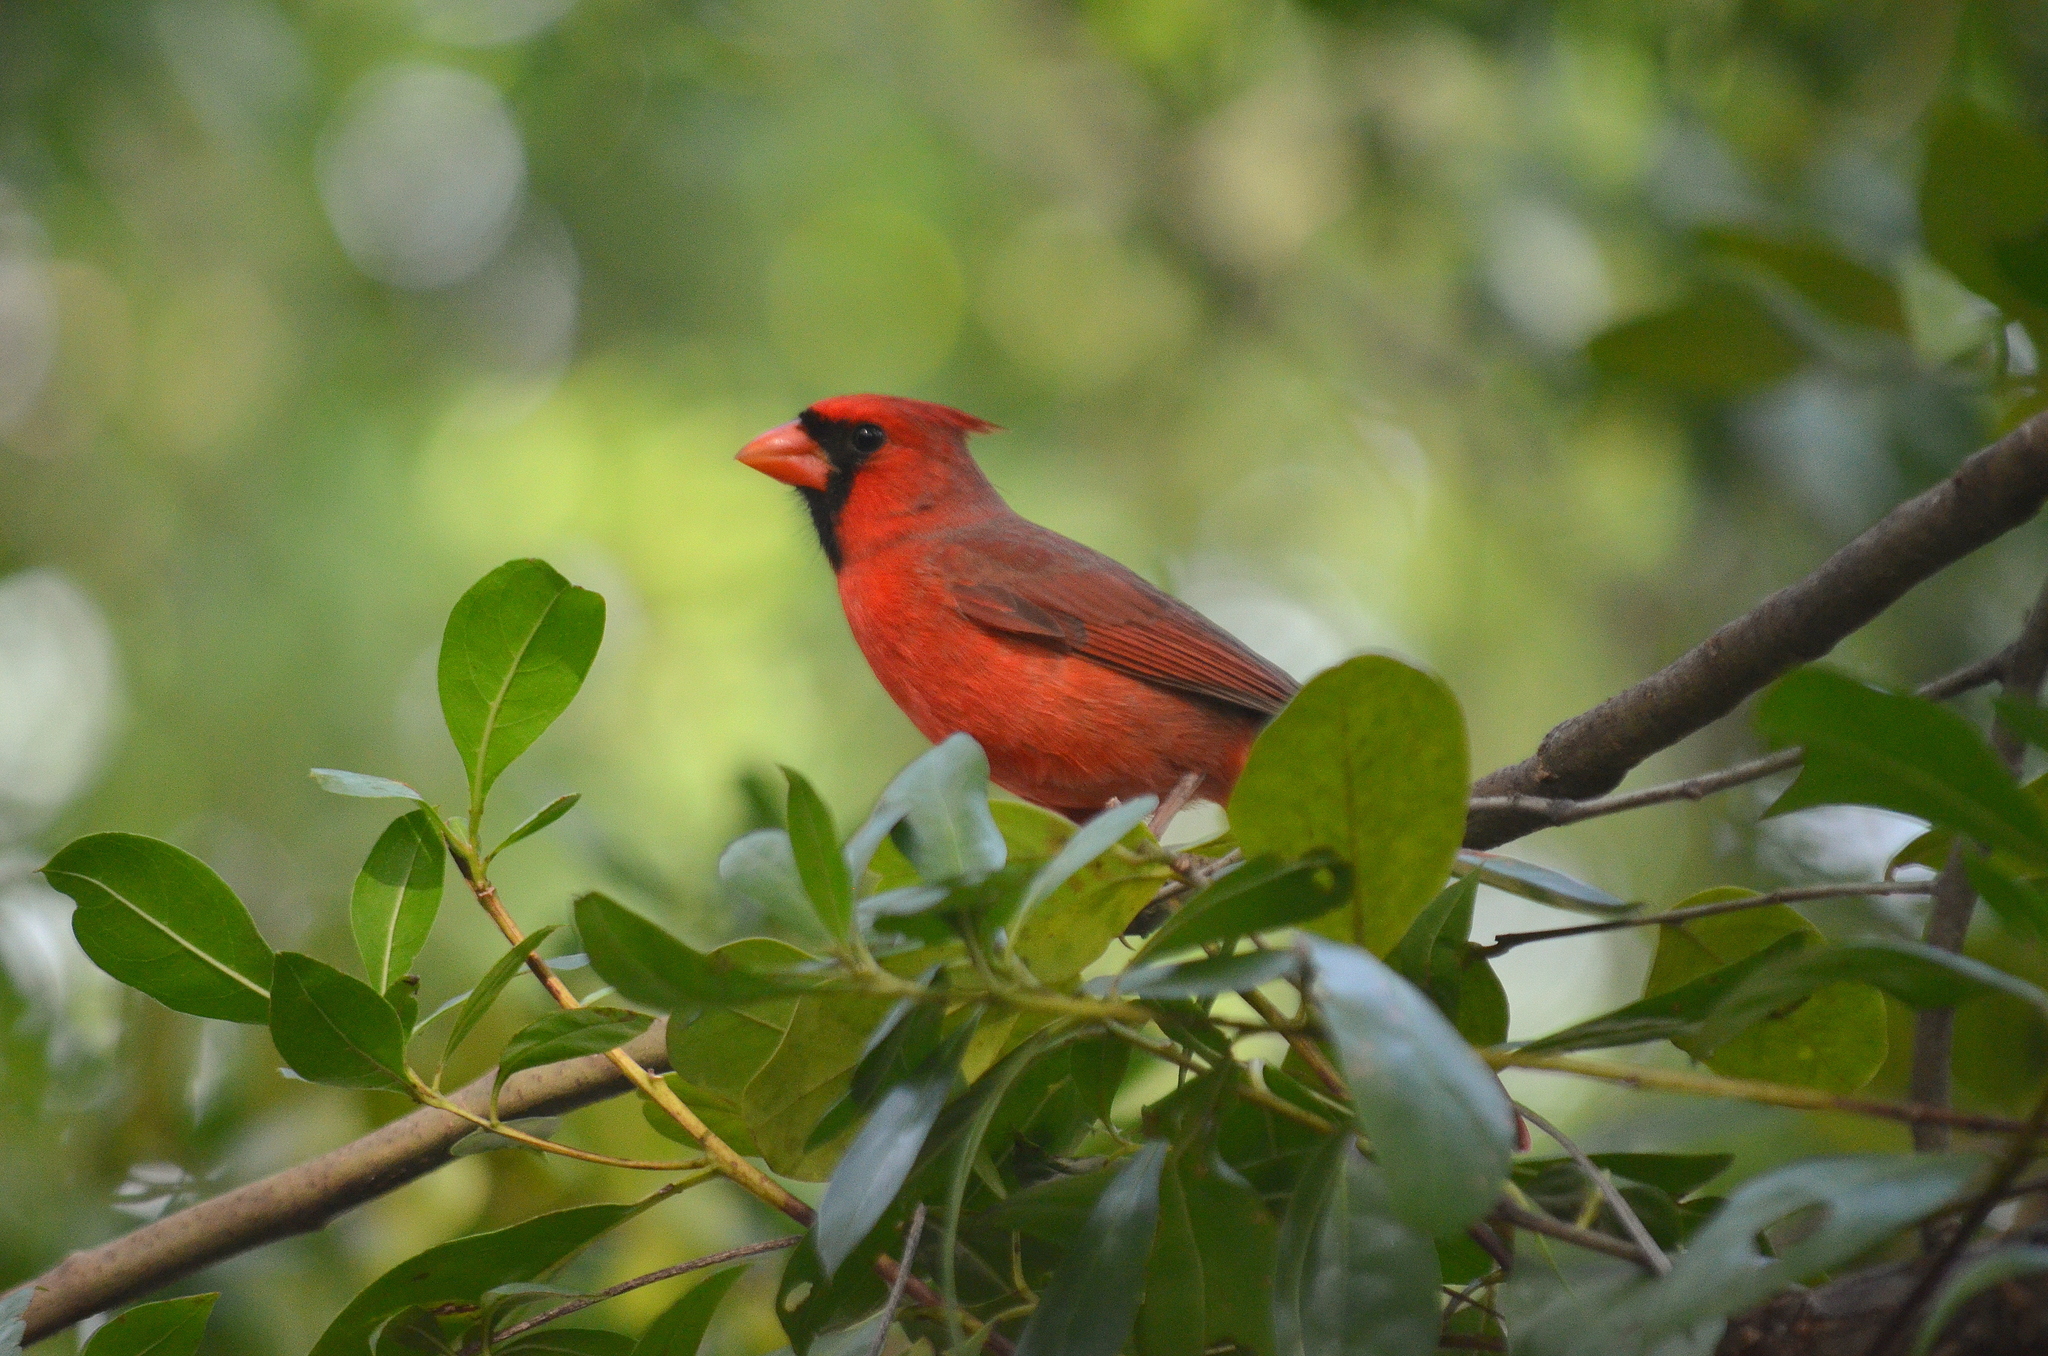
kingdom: Animalia
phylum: Chordata
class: Aves
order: Passeriformes
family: Cardinalidae
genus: Cardinalis
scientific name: Cardinalis cardinalis
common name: Northern cardinal
